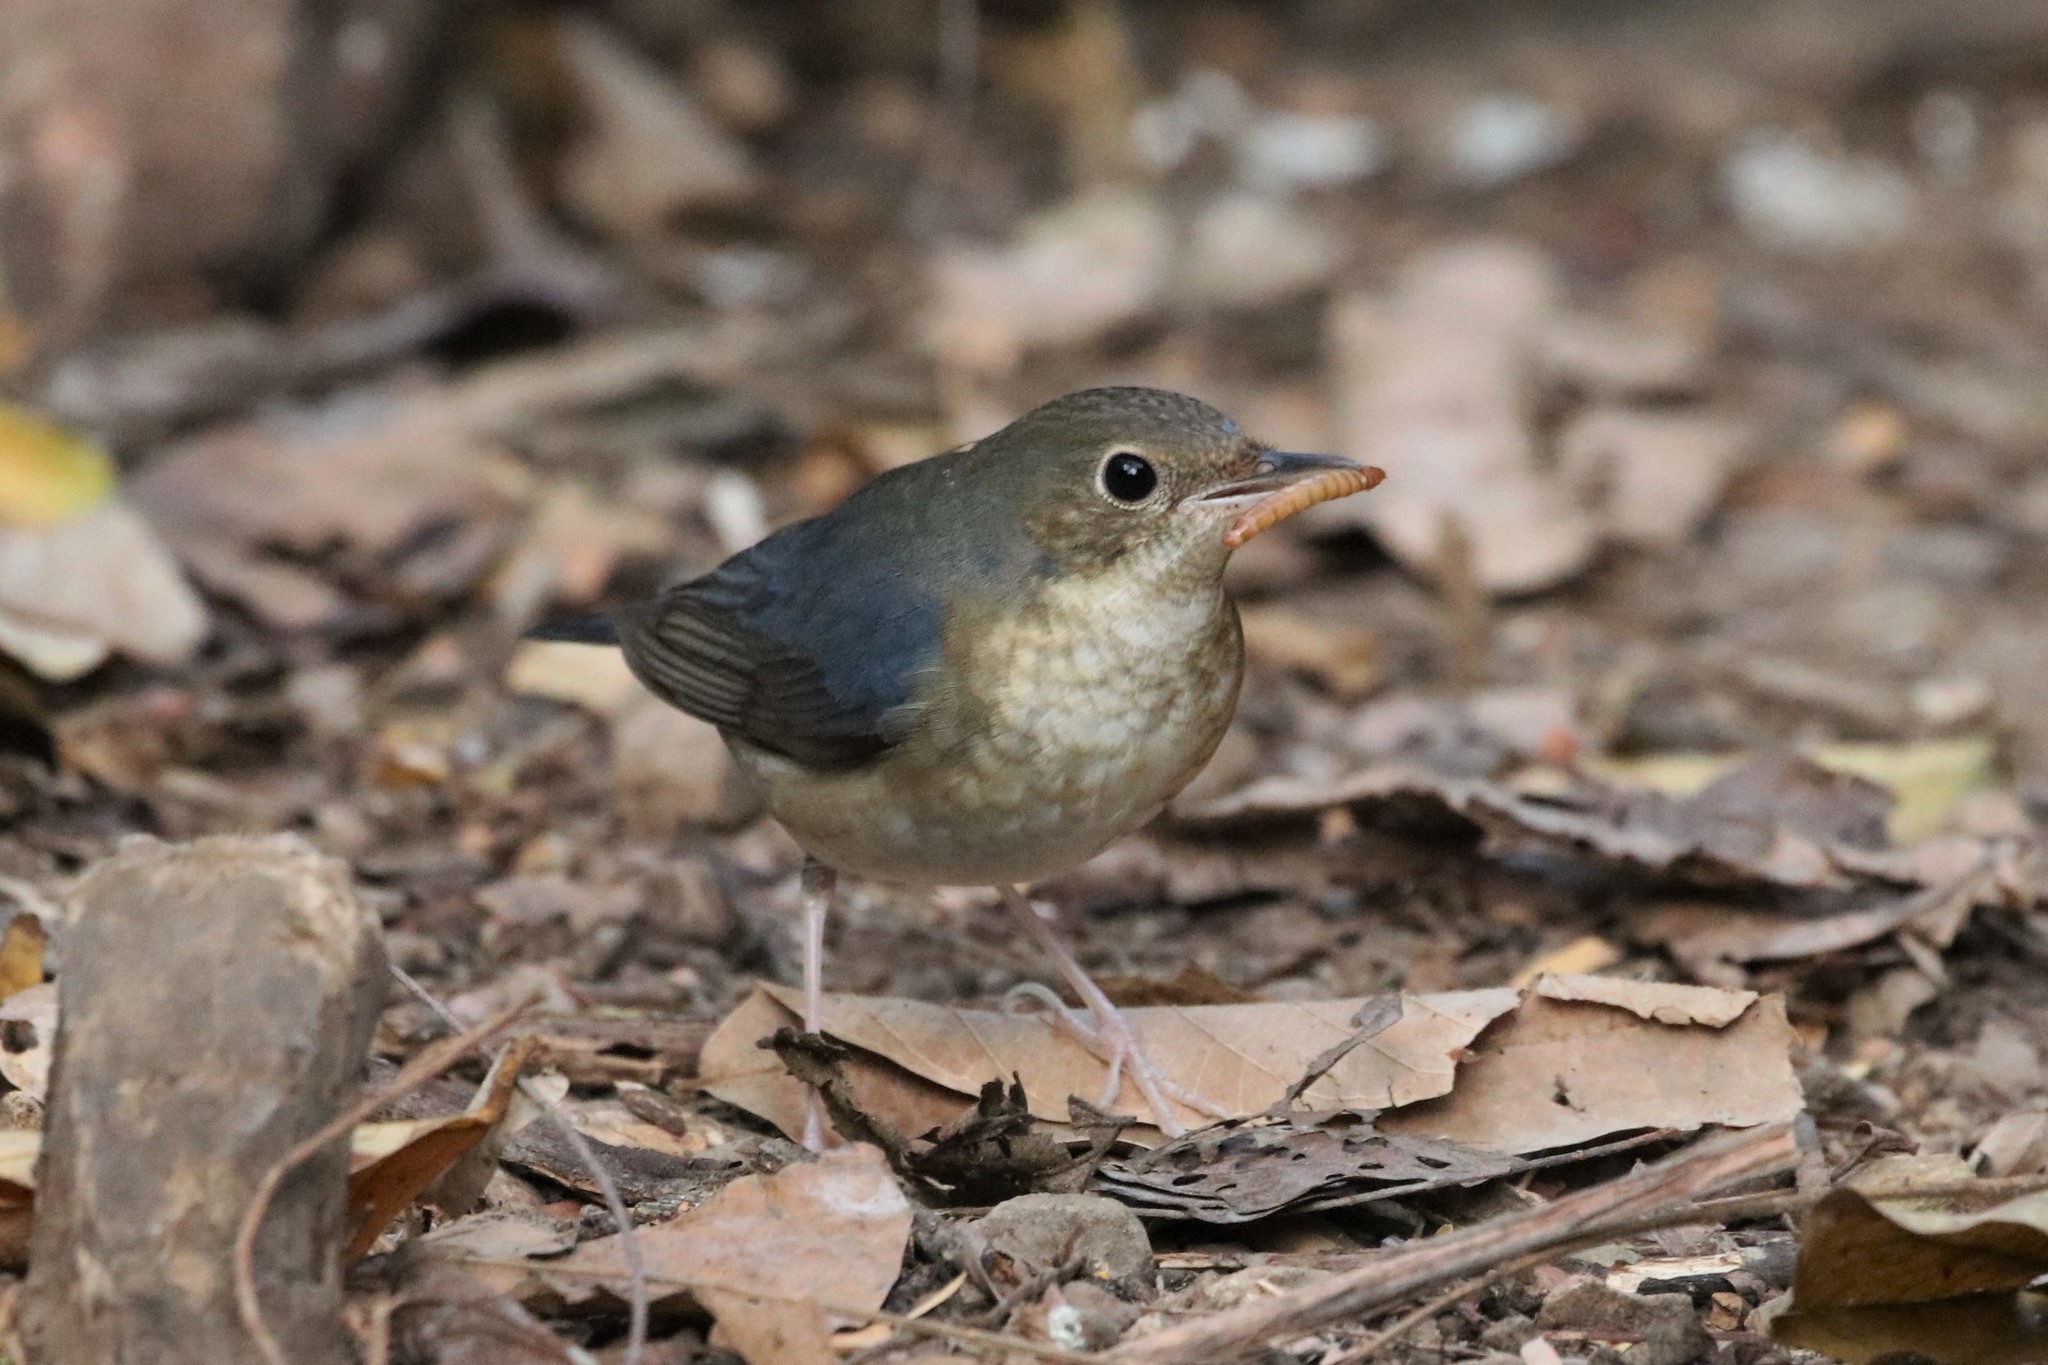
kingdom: Animalia
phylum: Chordata
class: Aves
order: Passeriformes
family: Muscicapidae
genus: Luscinia
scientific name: Luscinia cyane
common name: Siberian blue robin
